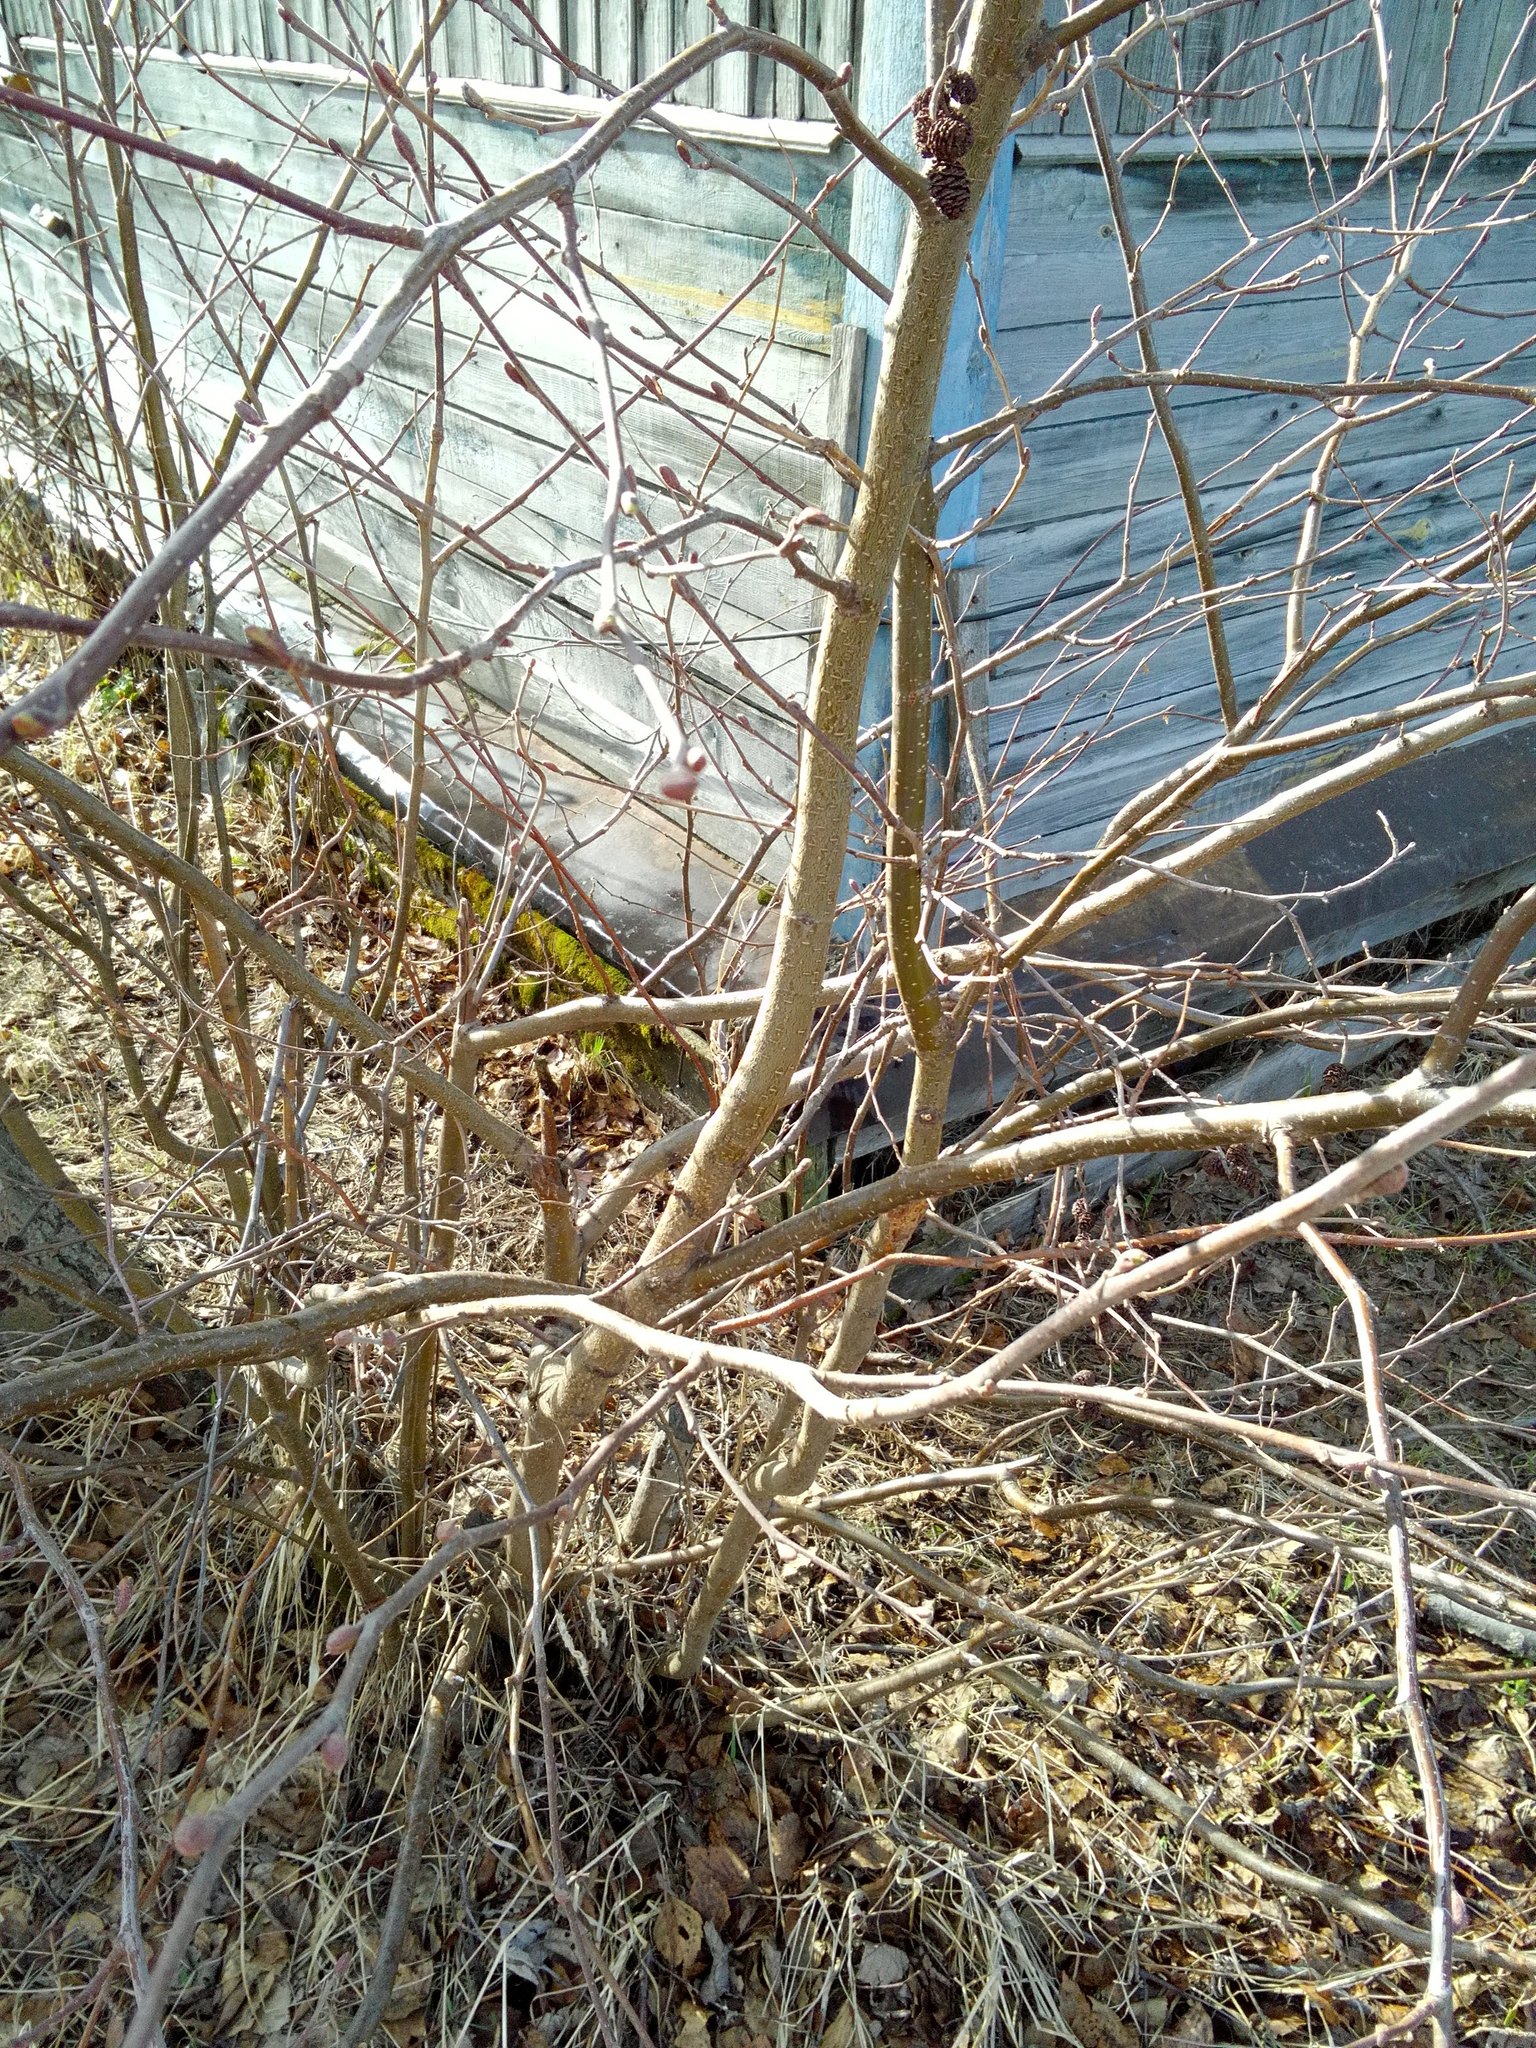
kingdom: Plantae
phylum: Tracheophyta
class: Magnoliopsida
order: Fagales
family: Betulaceae
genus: Alnus
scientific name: Alnus incana
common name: Grey alder
